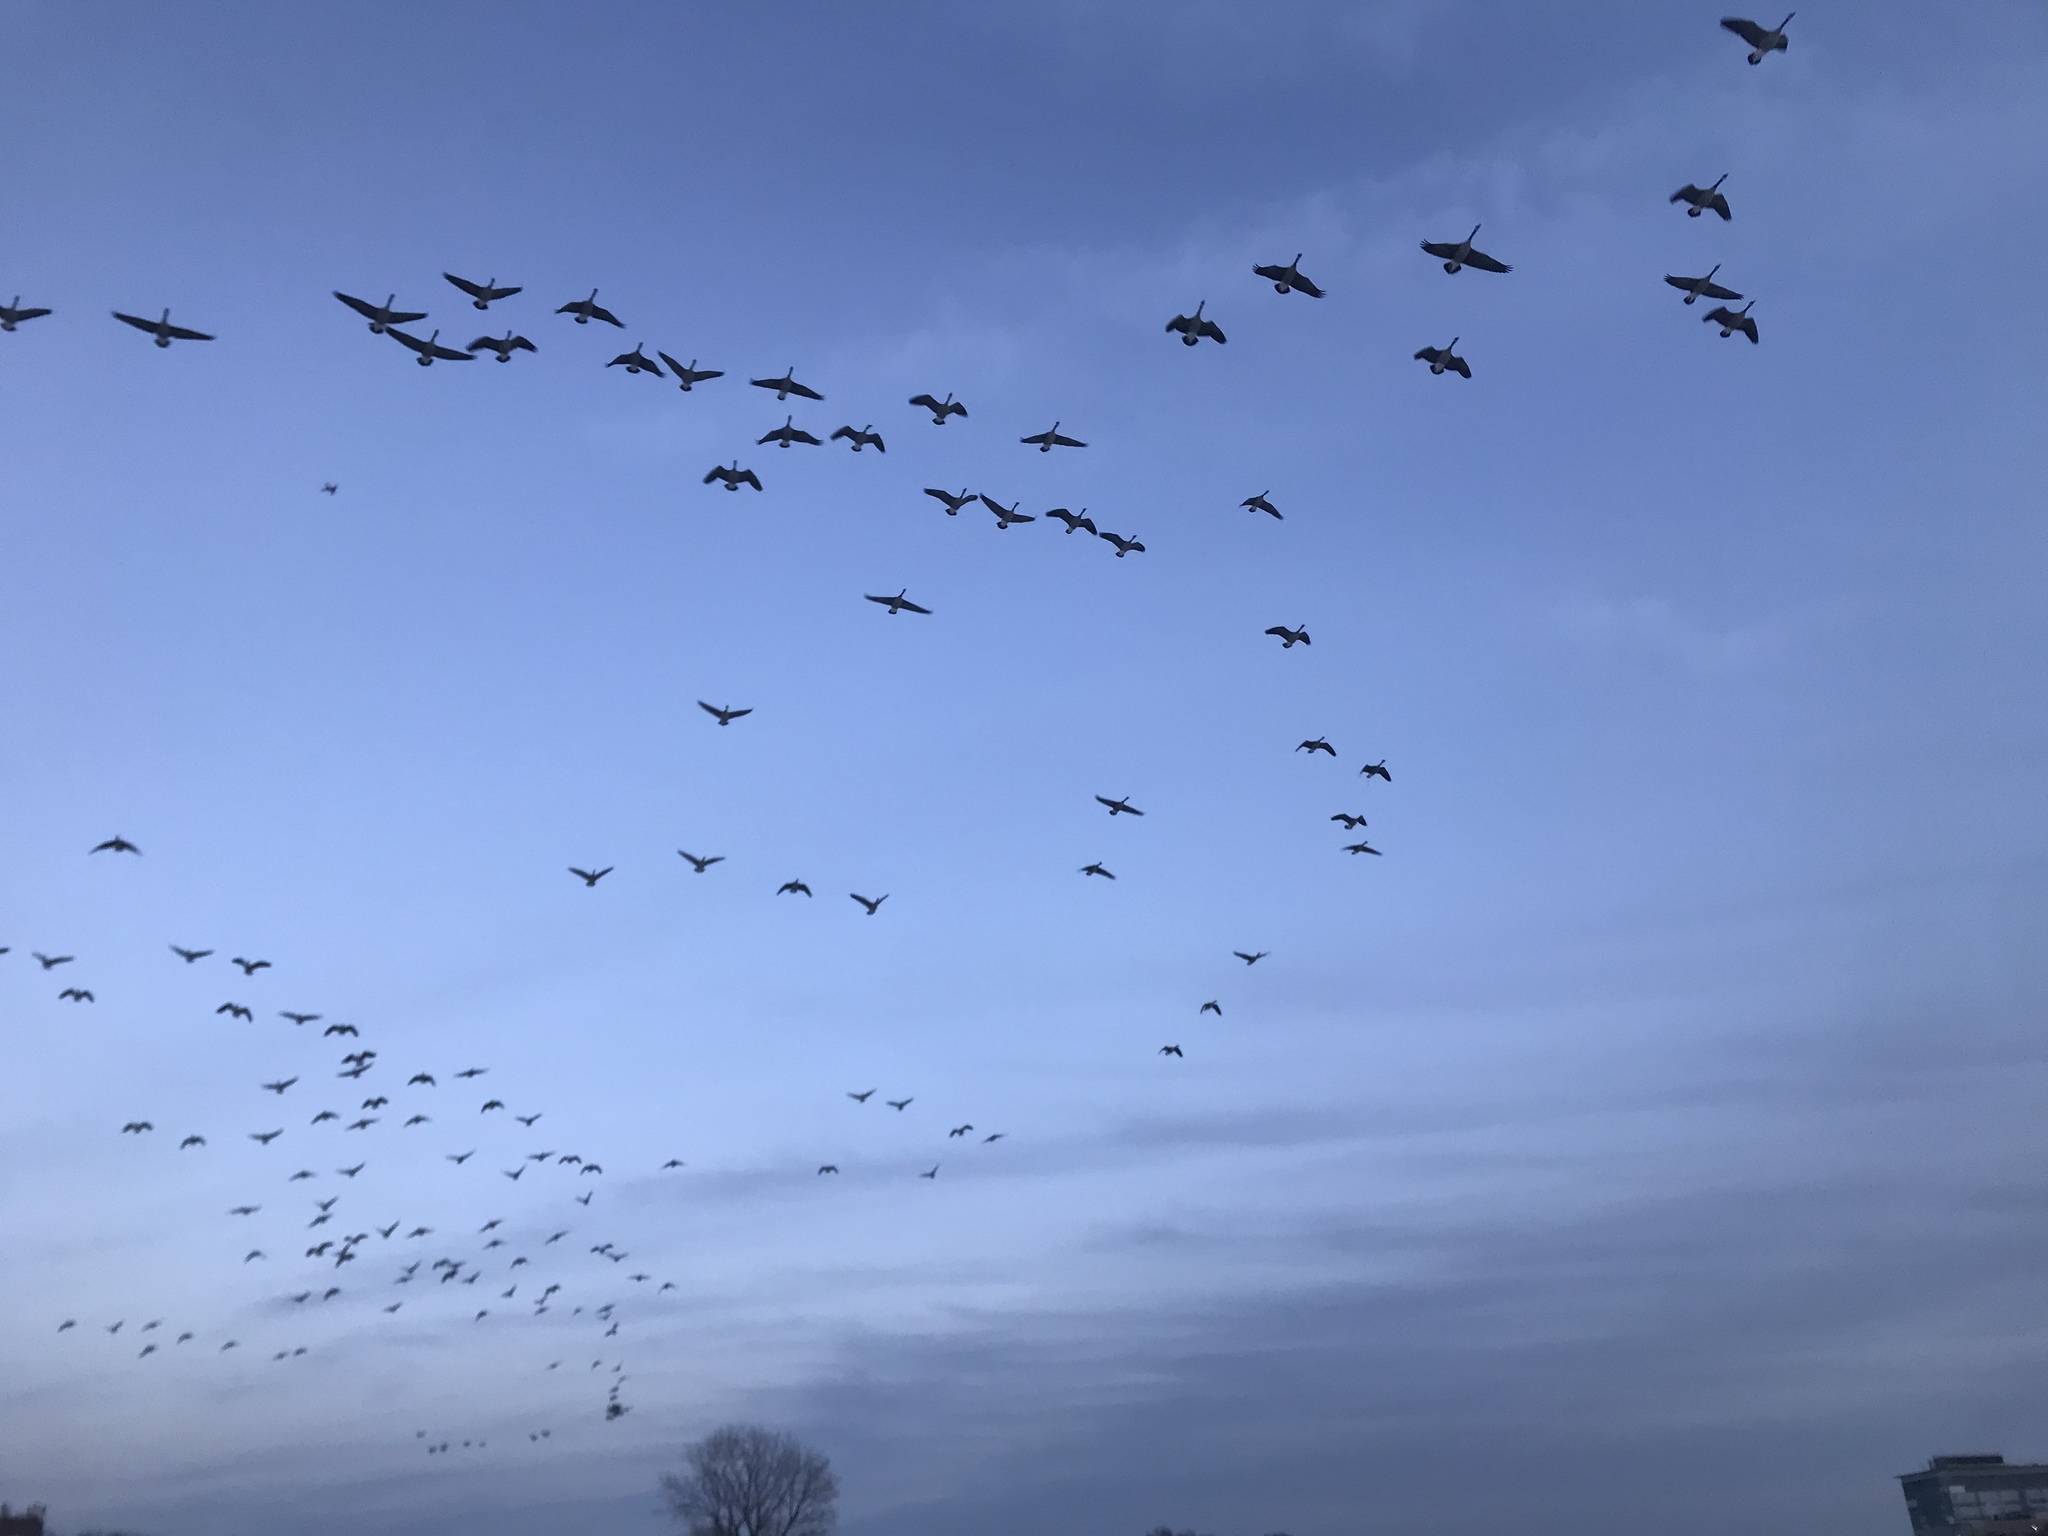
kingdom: Animalia
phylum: Chordata
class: Aves
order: Anseriformes
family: Anatidae
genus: Branta
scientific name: Branta canadensis
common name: Canada goose
